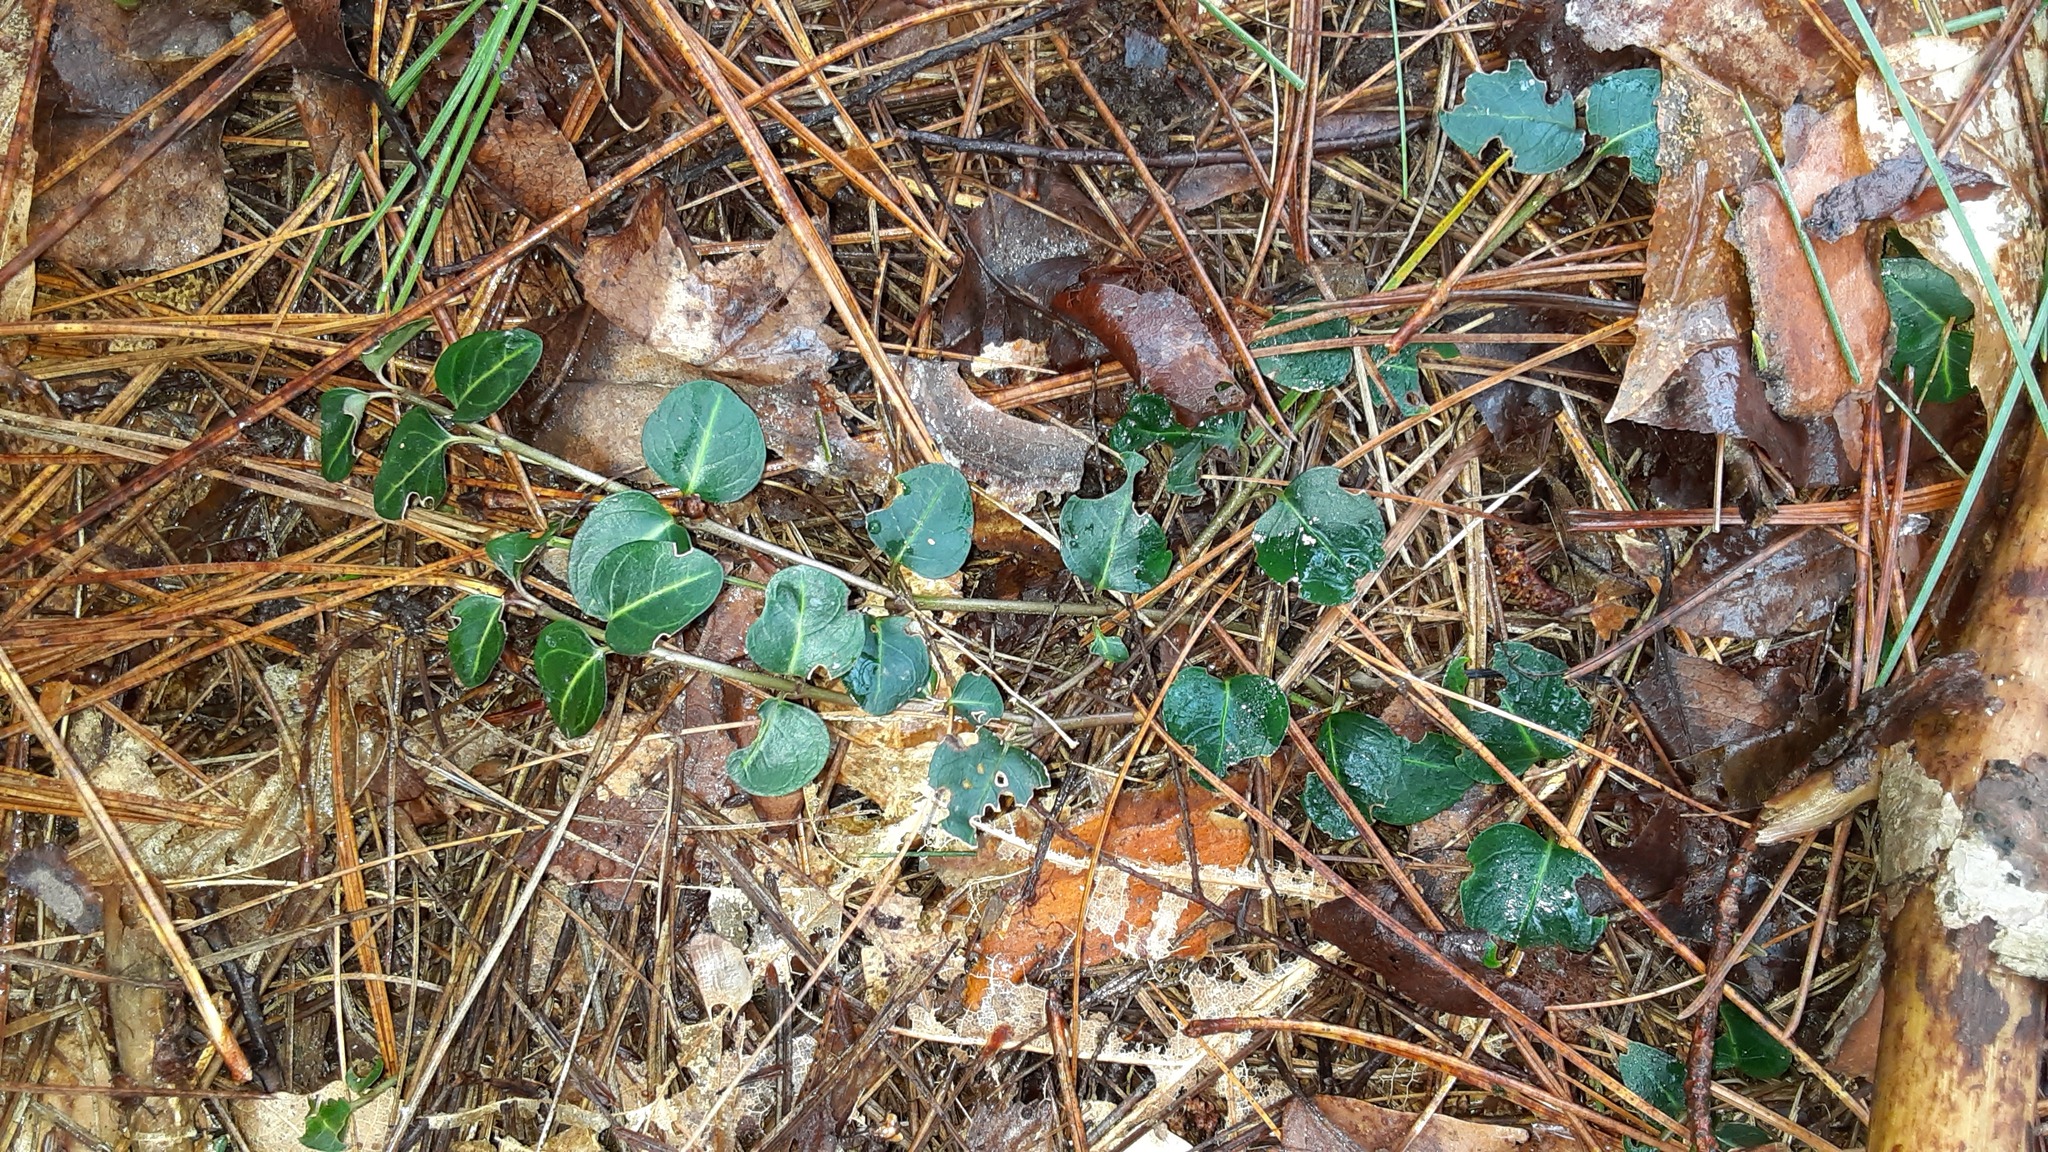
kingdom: Plantae
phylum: Tracheophyta
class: Magnoliopsida
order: Gentianales
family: Rubiaceae
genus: Mitchella
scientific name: Mitchella repens
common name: Partridge-berry
